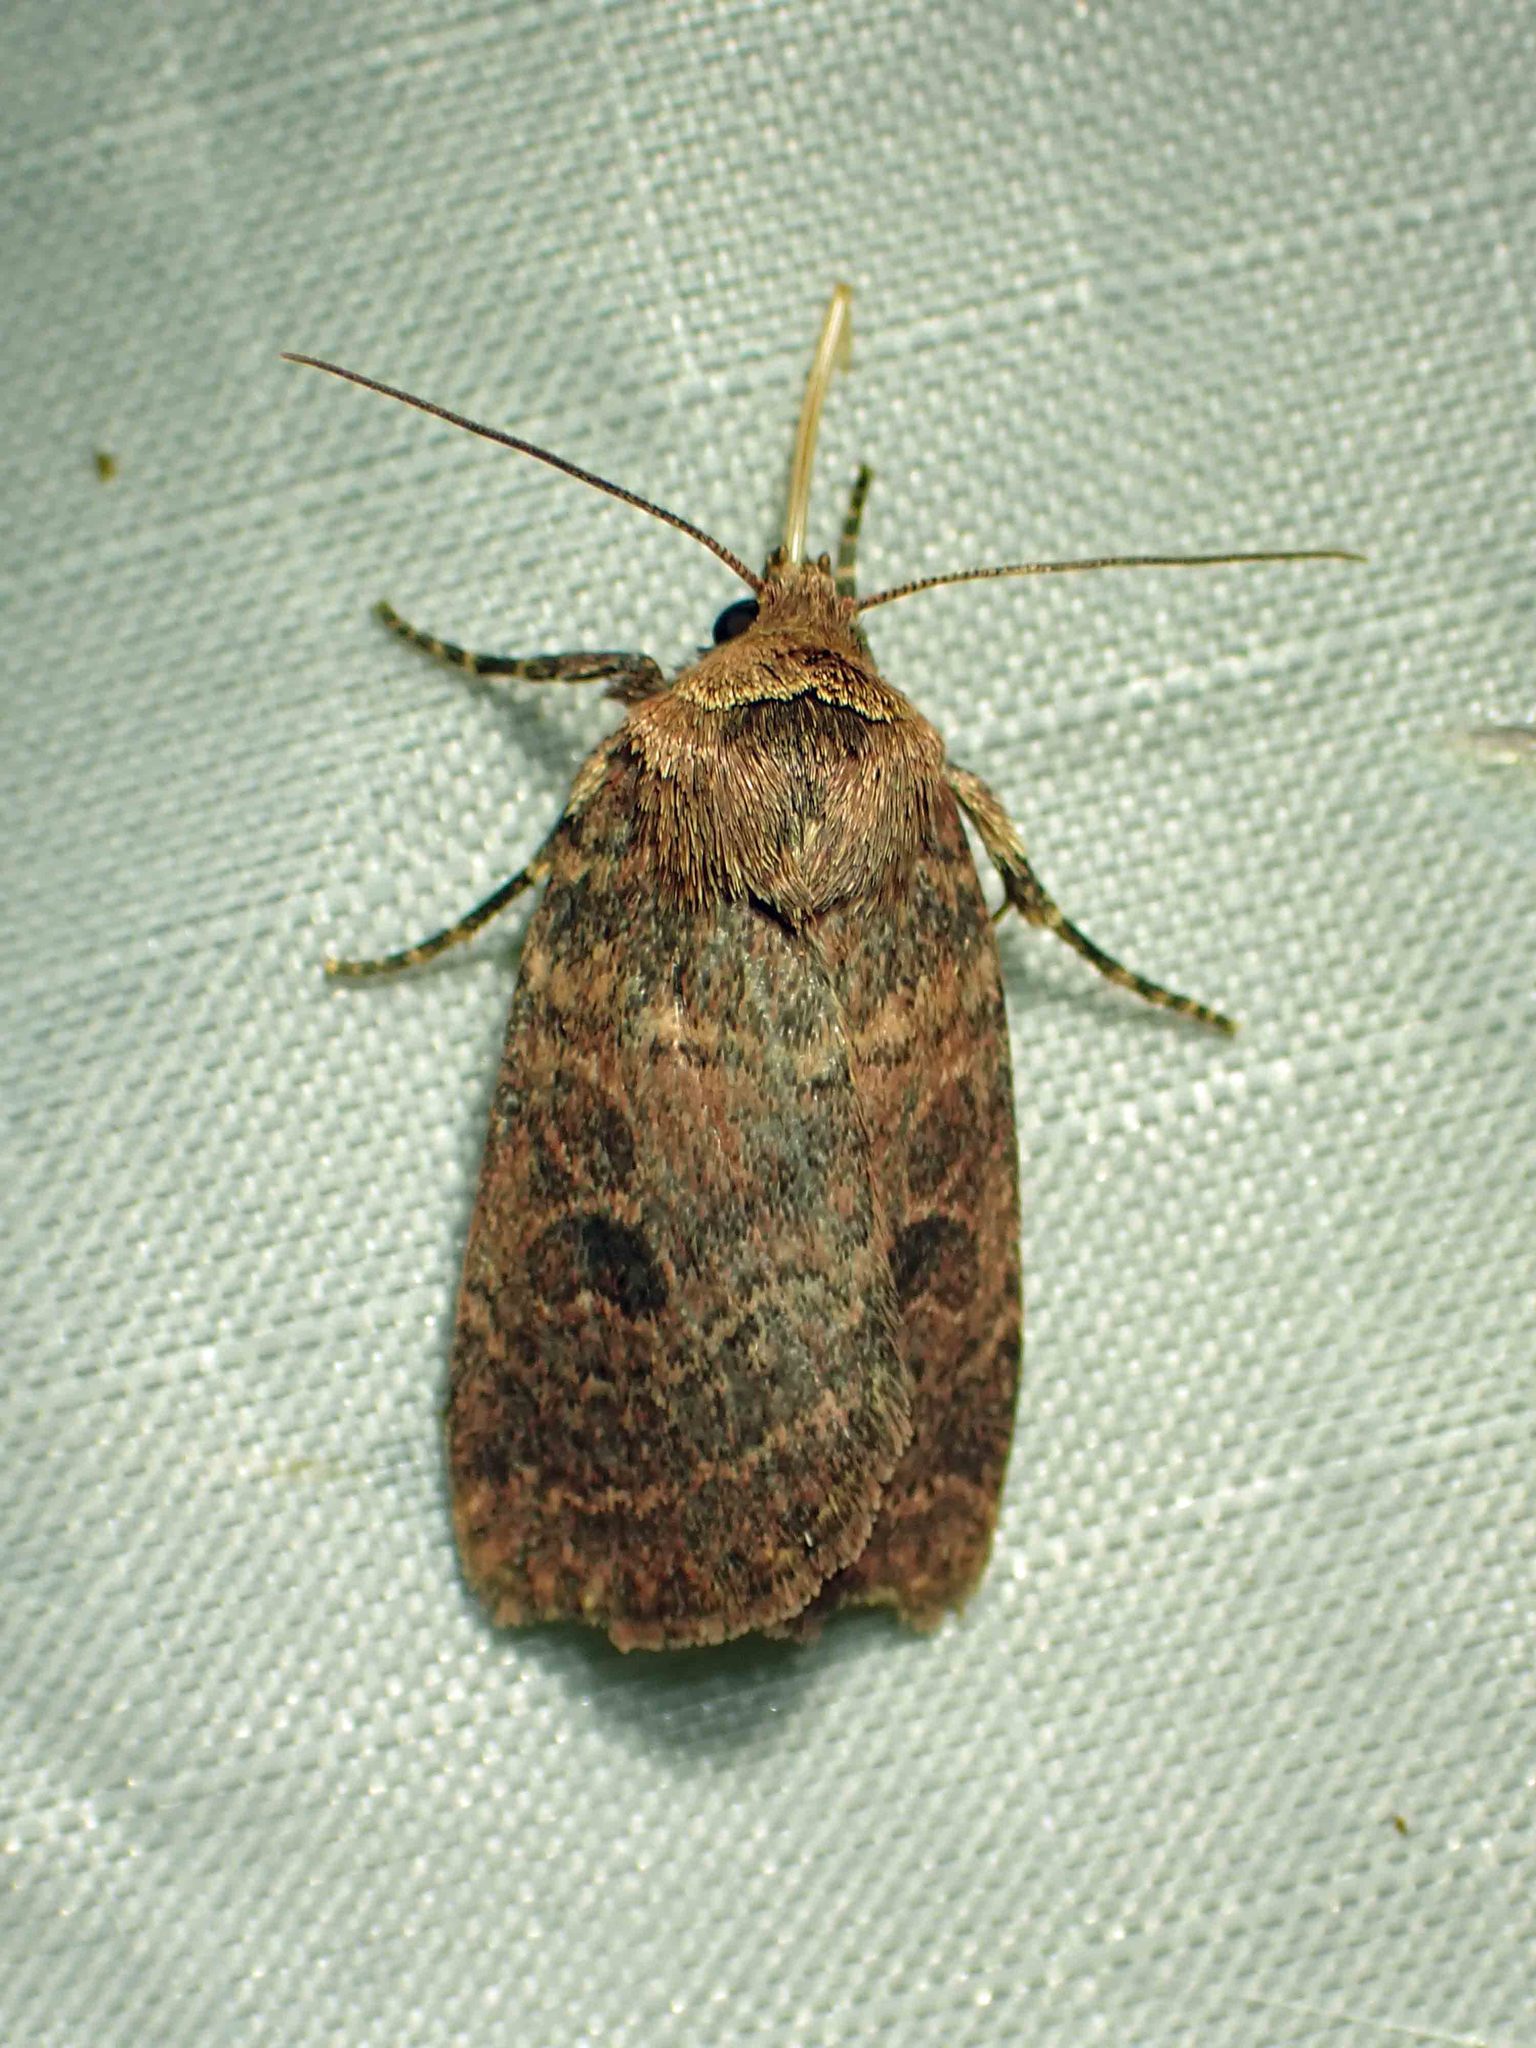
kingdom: Animalia
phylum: Arthropoda
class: Insecta
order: Lepidoptera
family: Noctuidae
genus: Orthodes
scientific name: Orthodes cynica
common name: Cynical quaker
